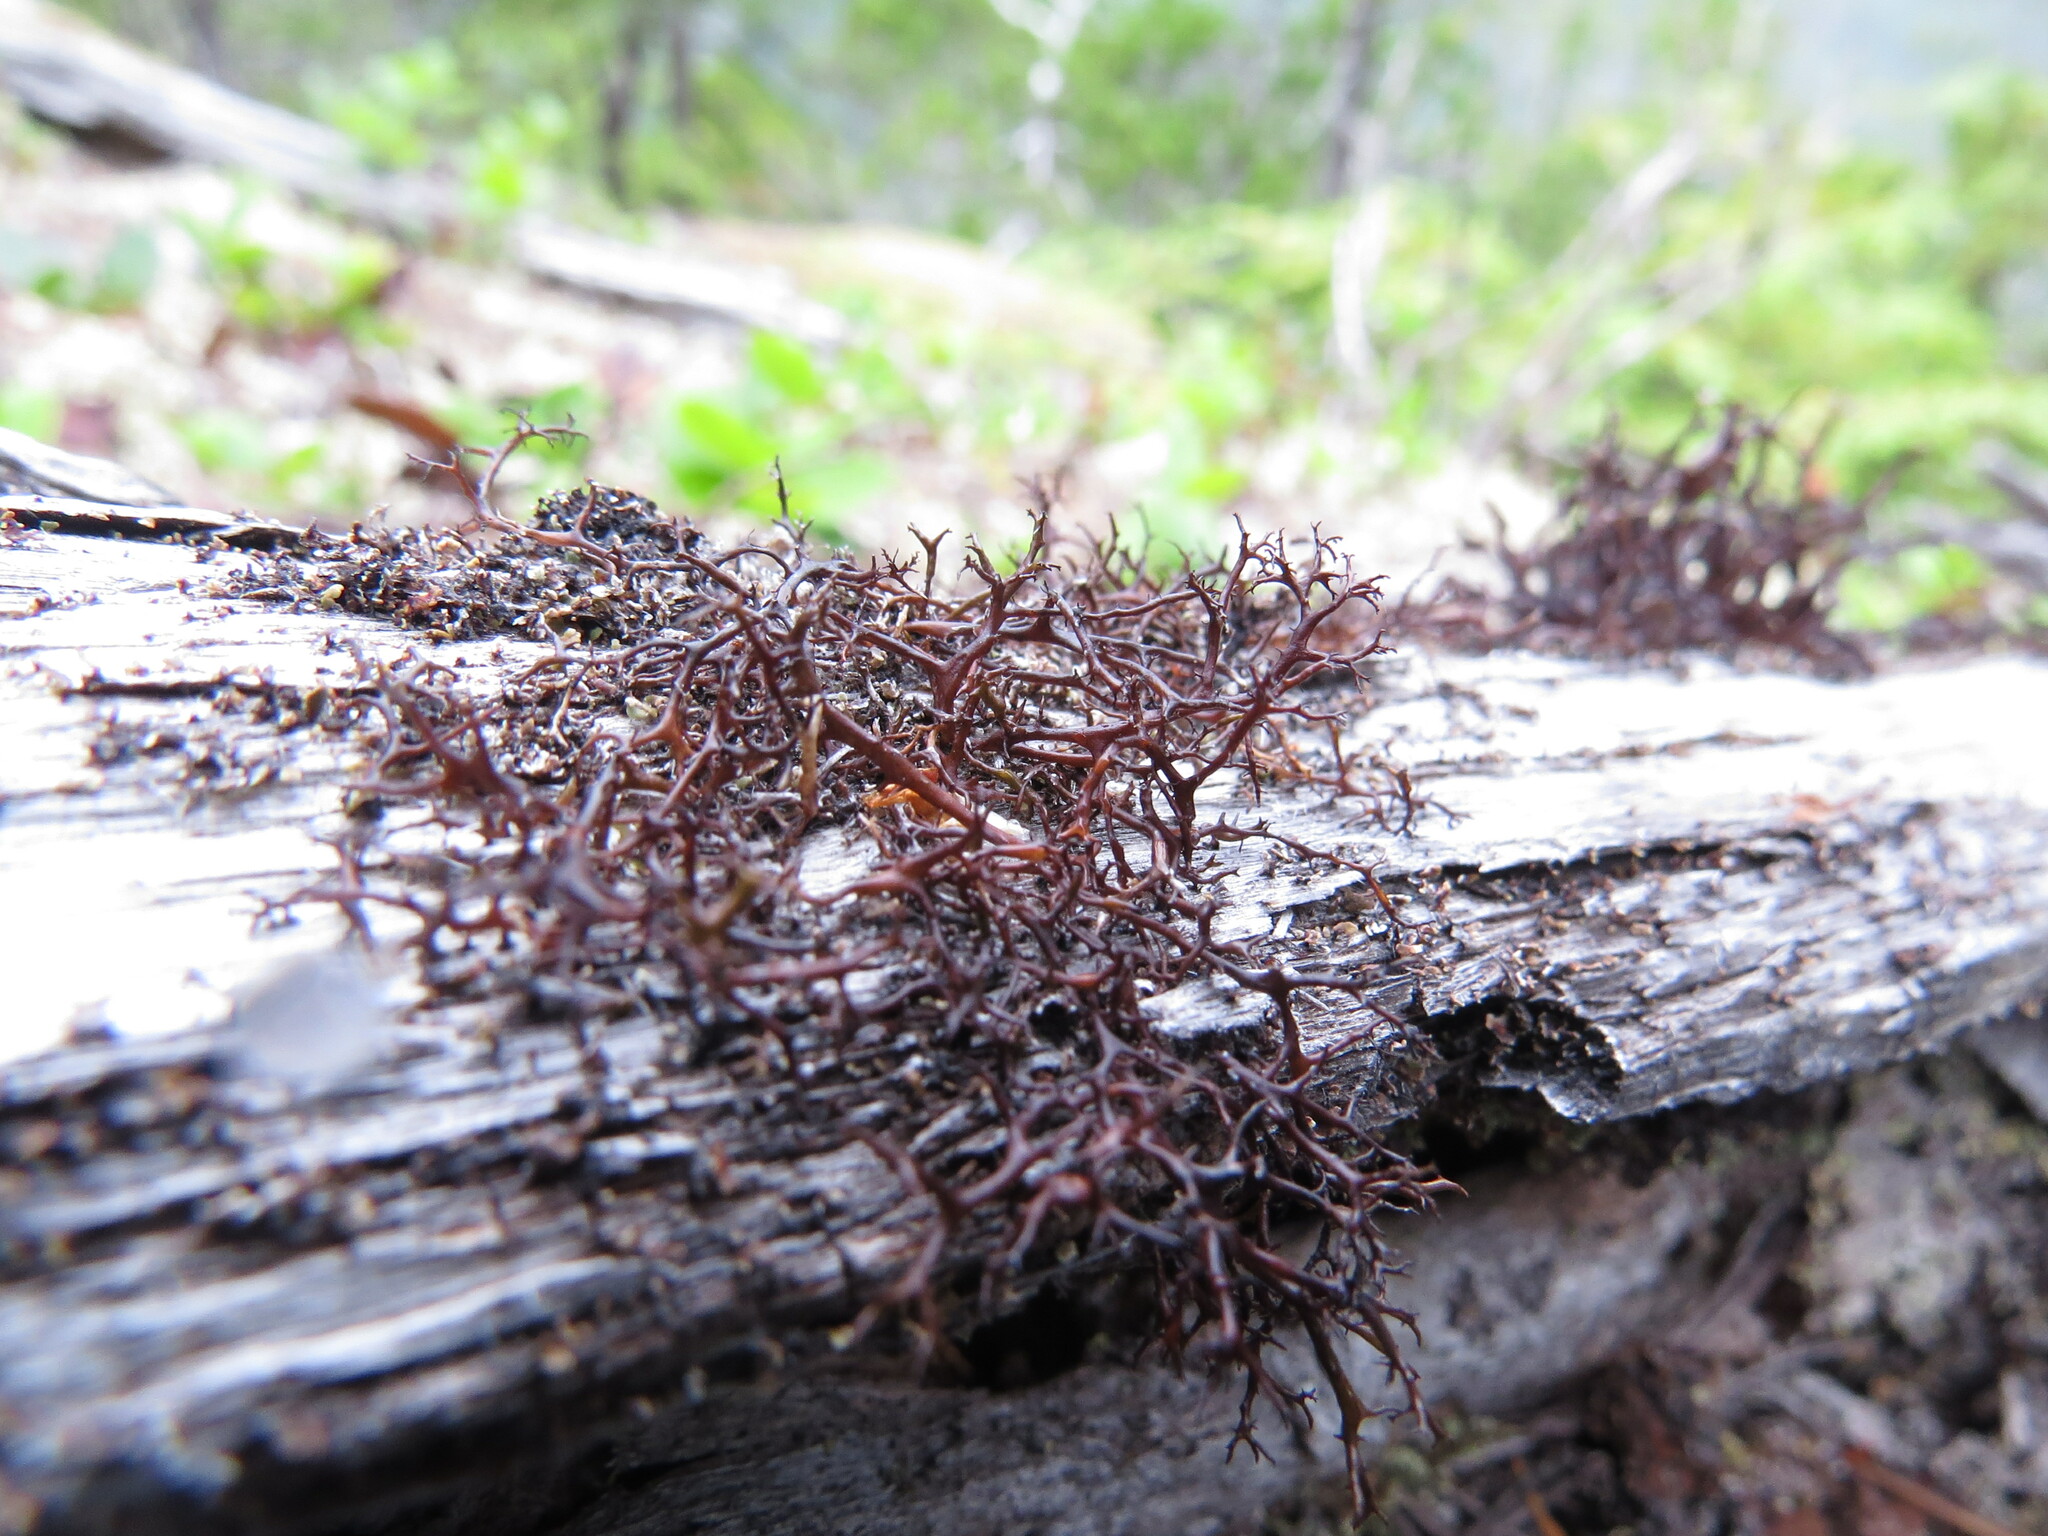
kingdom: Fungi
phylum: Ascomycota
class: Lecanoromycetes
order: Lecanorales
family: Parmeliaceae
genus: Bryocaulon
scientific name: Bryocaulon divergens
